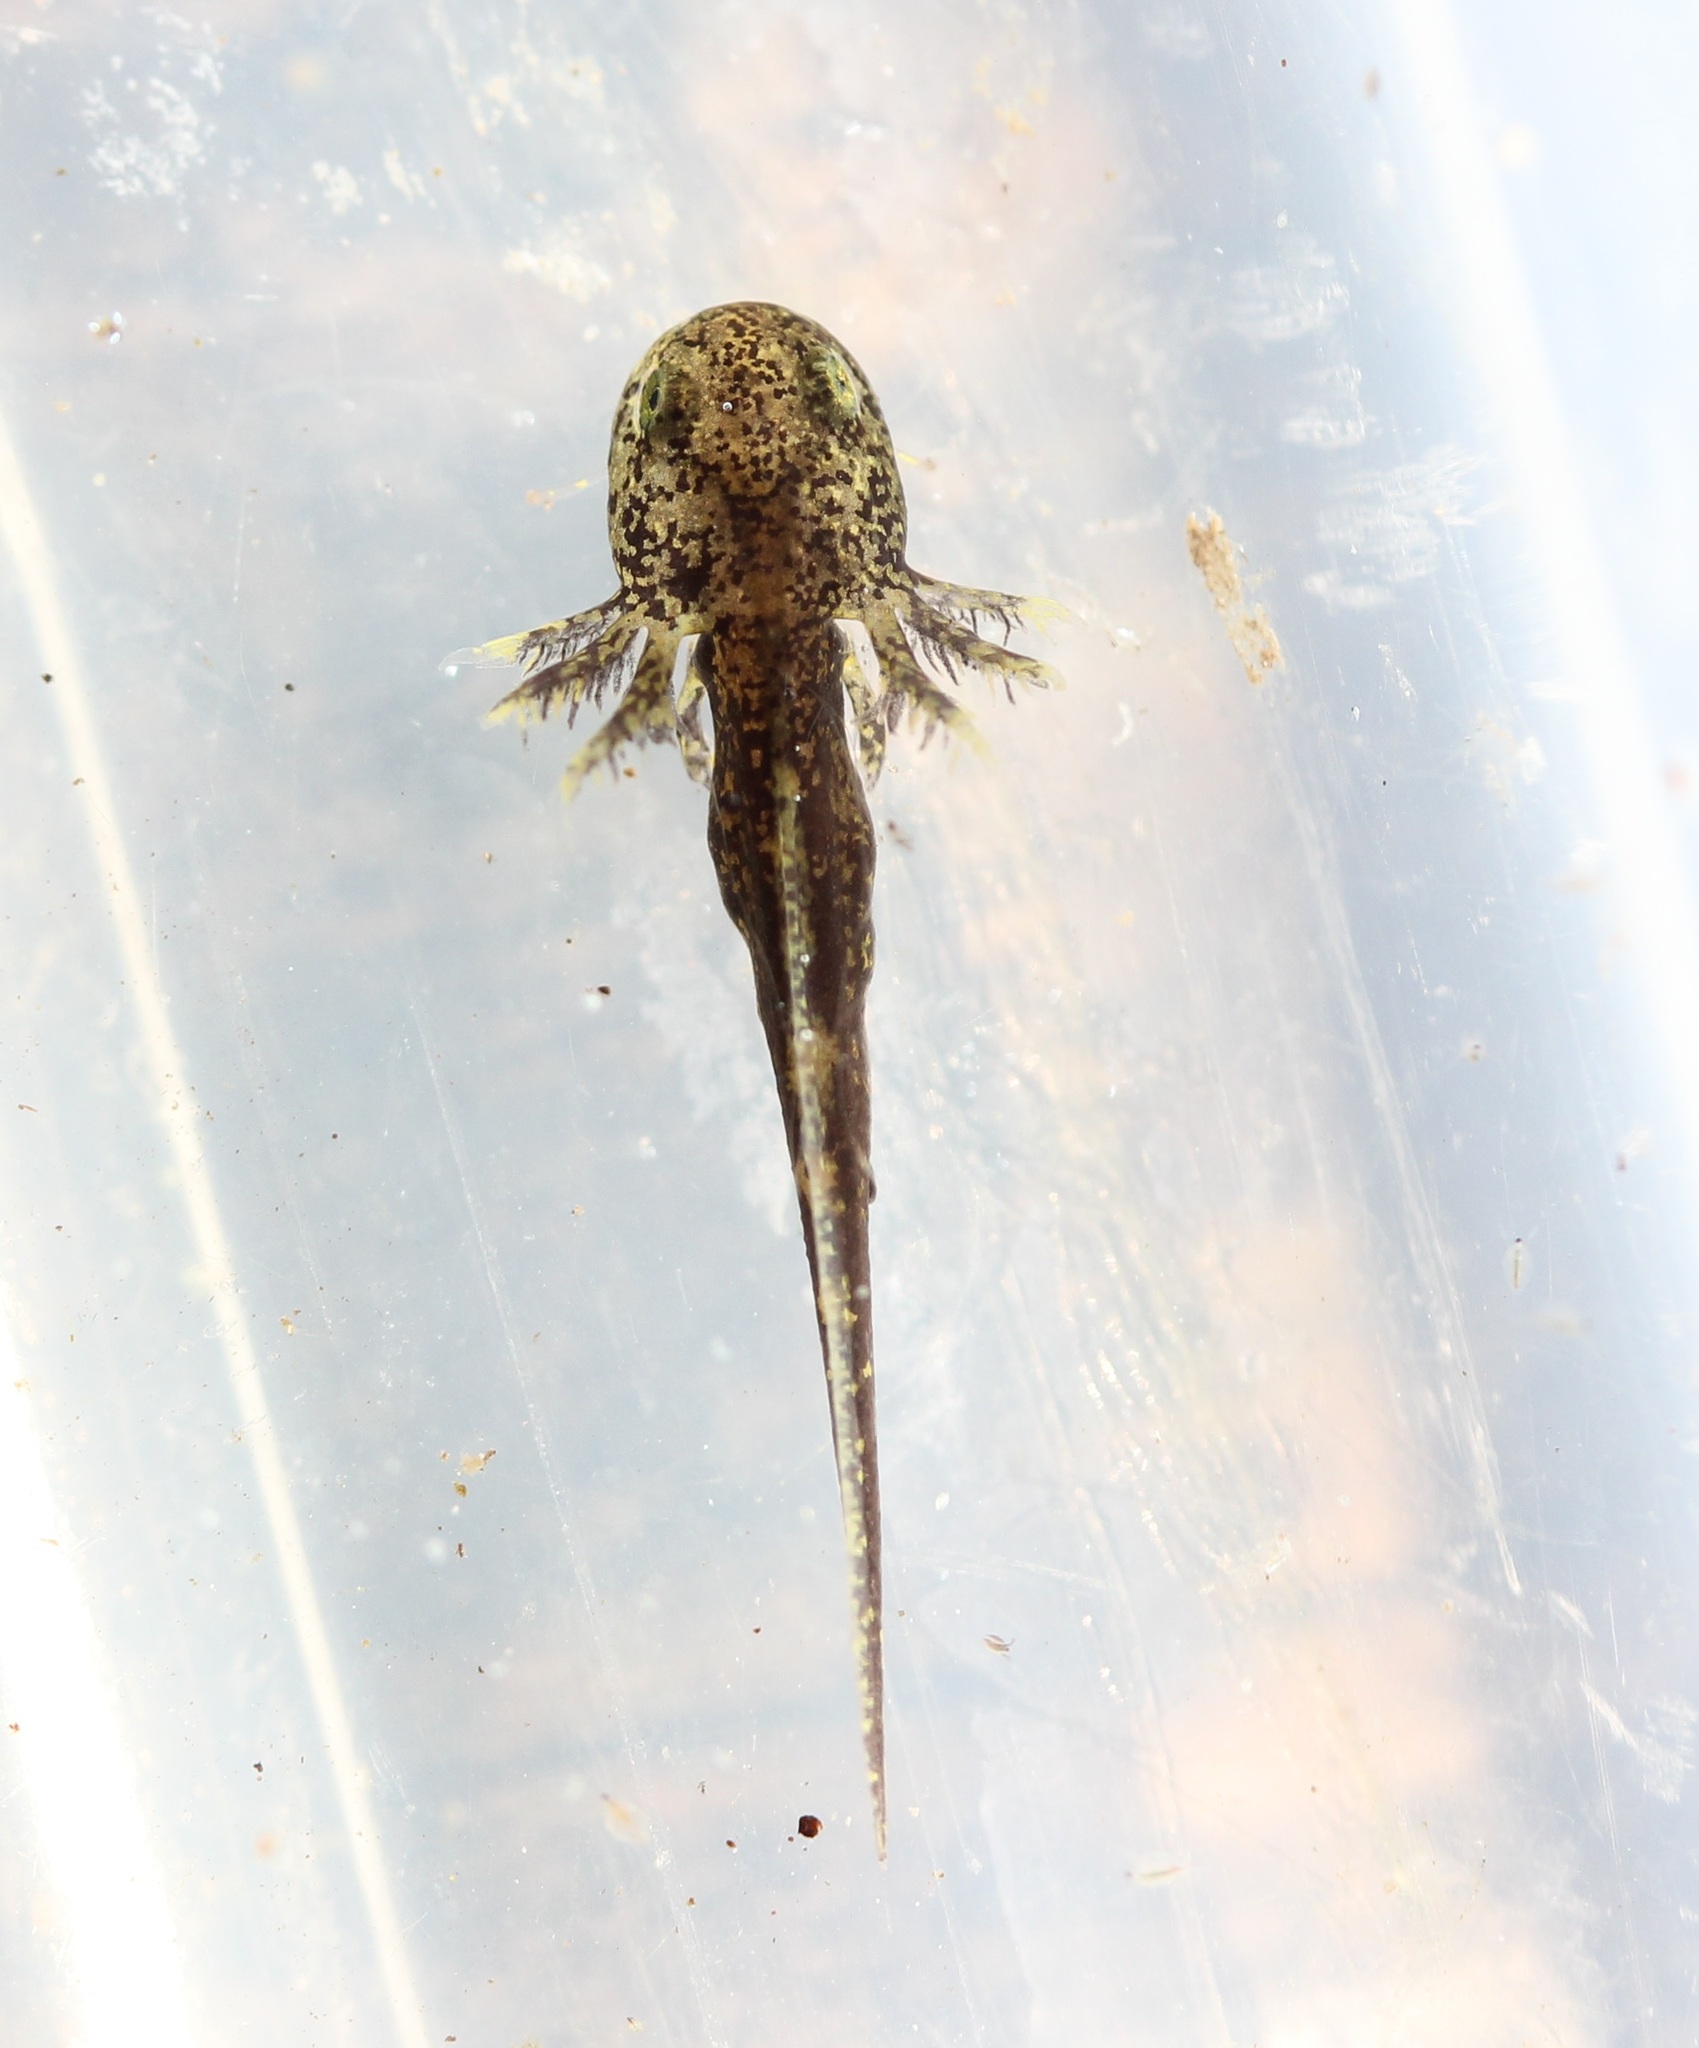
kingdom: Animalia
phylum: Chordata
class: Amphibia
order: Caudata
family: Ambystomatidae
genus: Ambystoma
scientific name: Ambystoma texanum
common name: Small-mouth salamander
